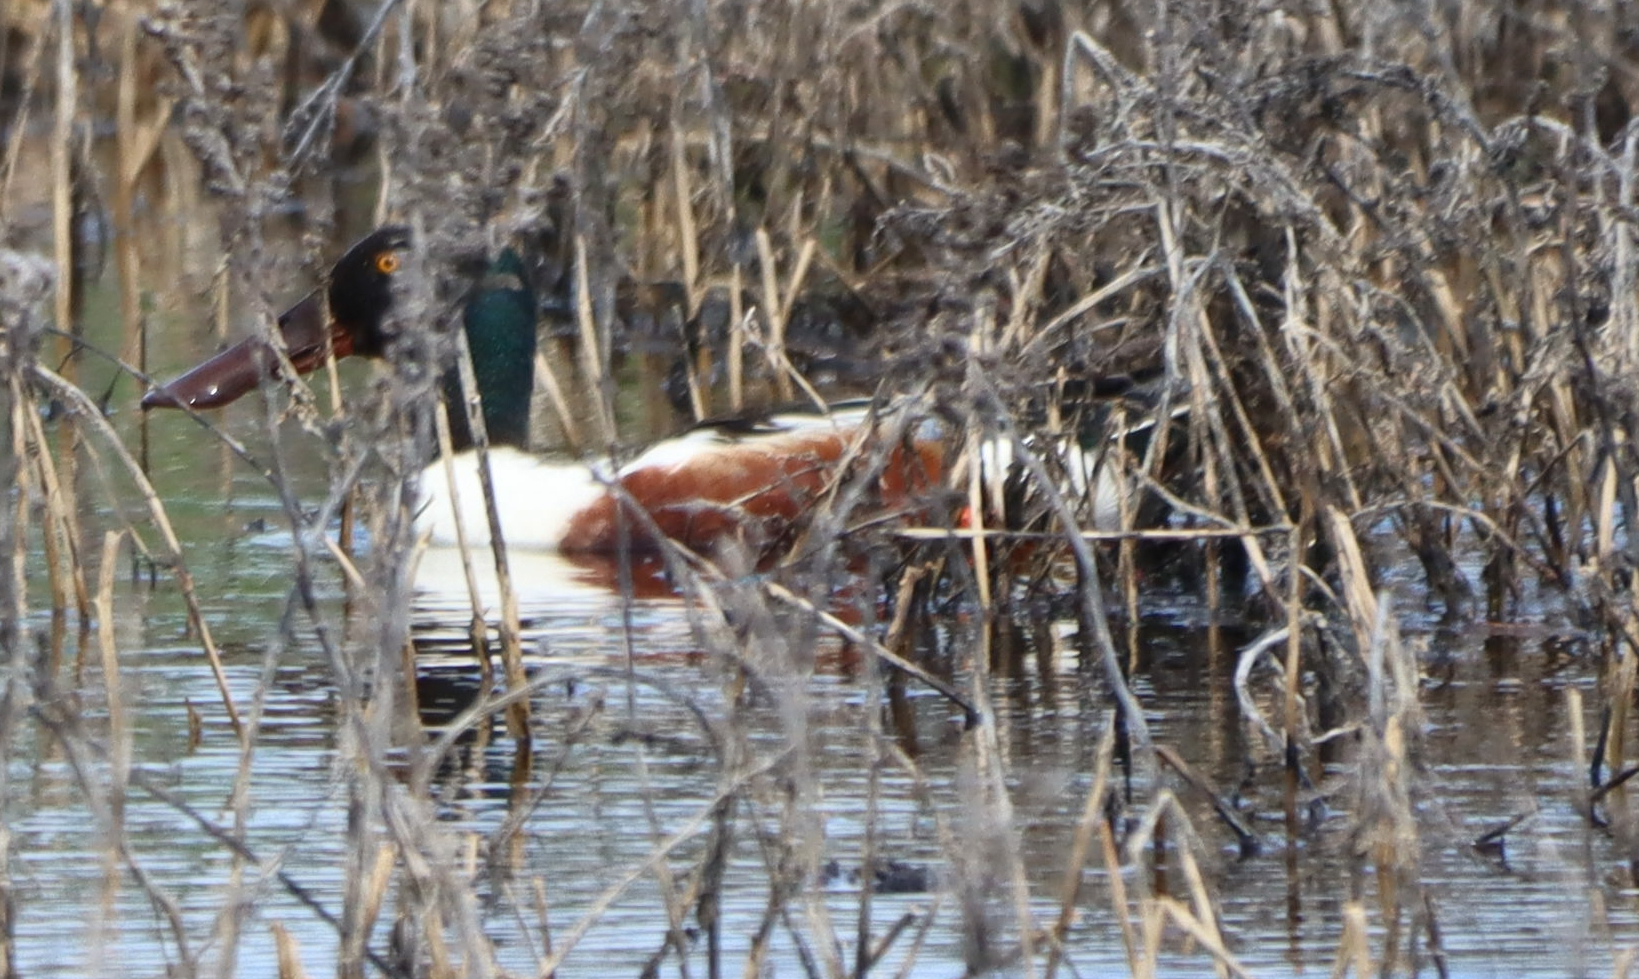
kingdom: Animalia
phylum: Chordata
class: Aves
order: Anseriformes
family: Anatidae
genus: Spatula
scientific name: Spatula clypeata
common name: Northern shoveler
